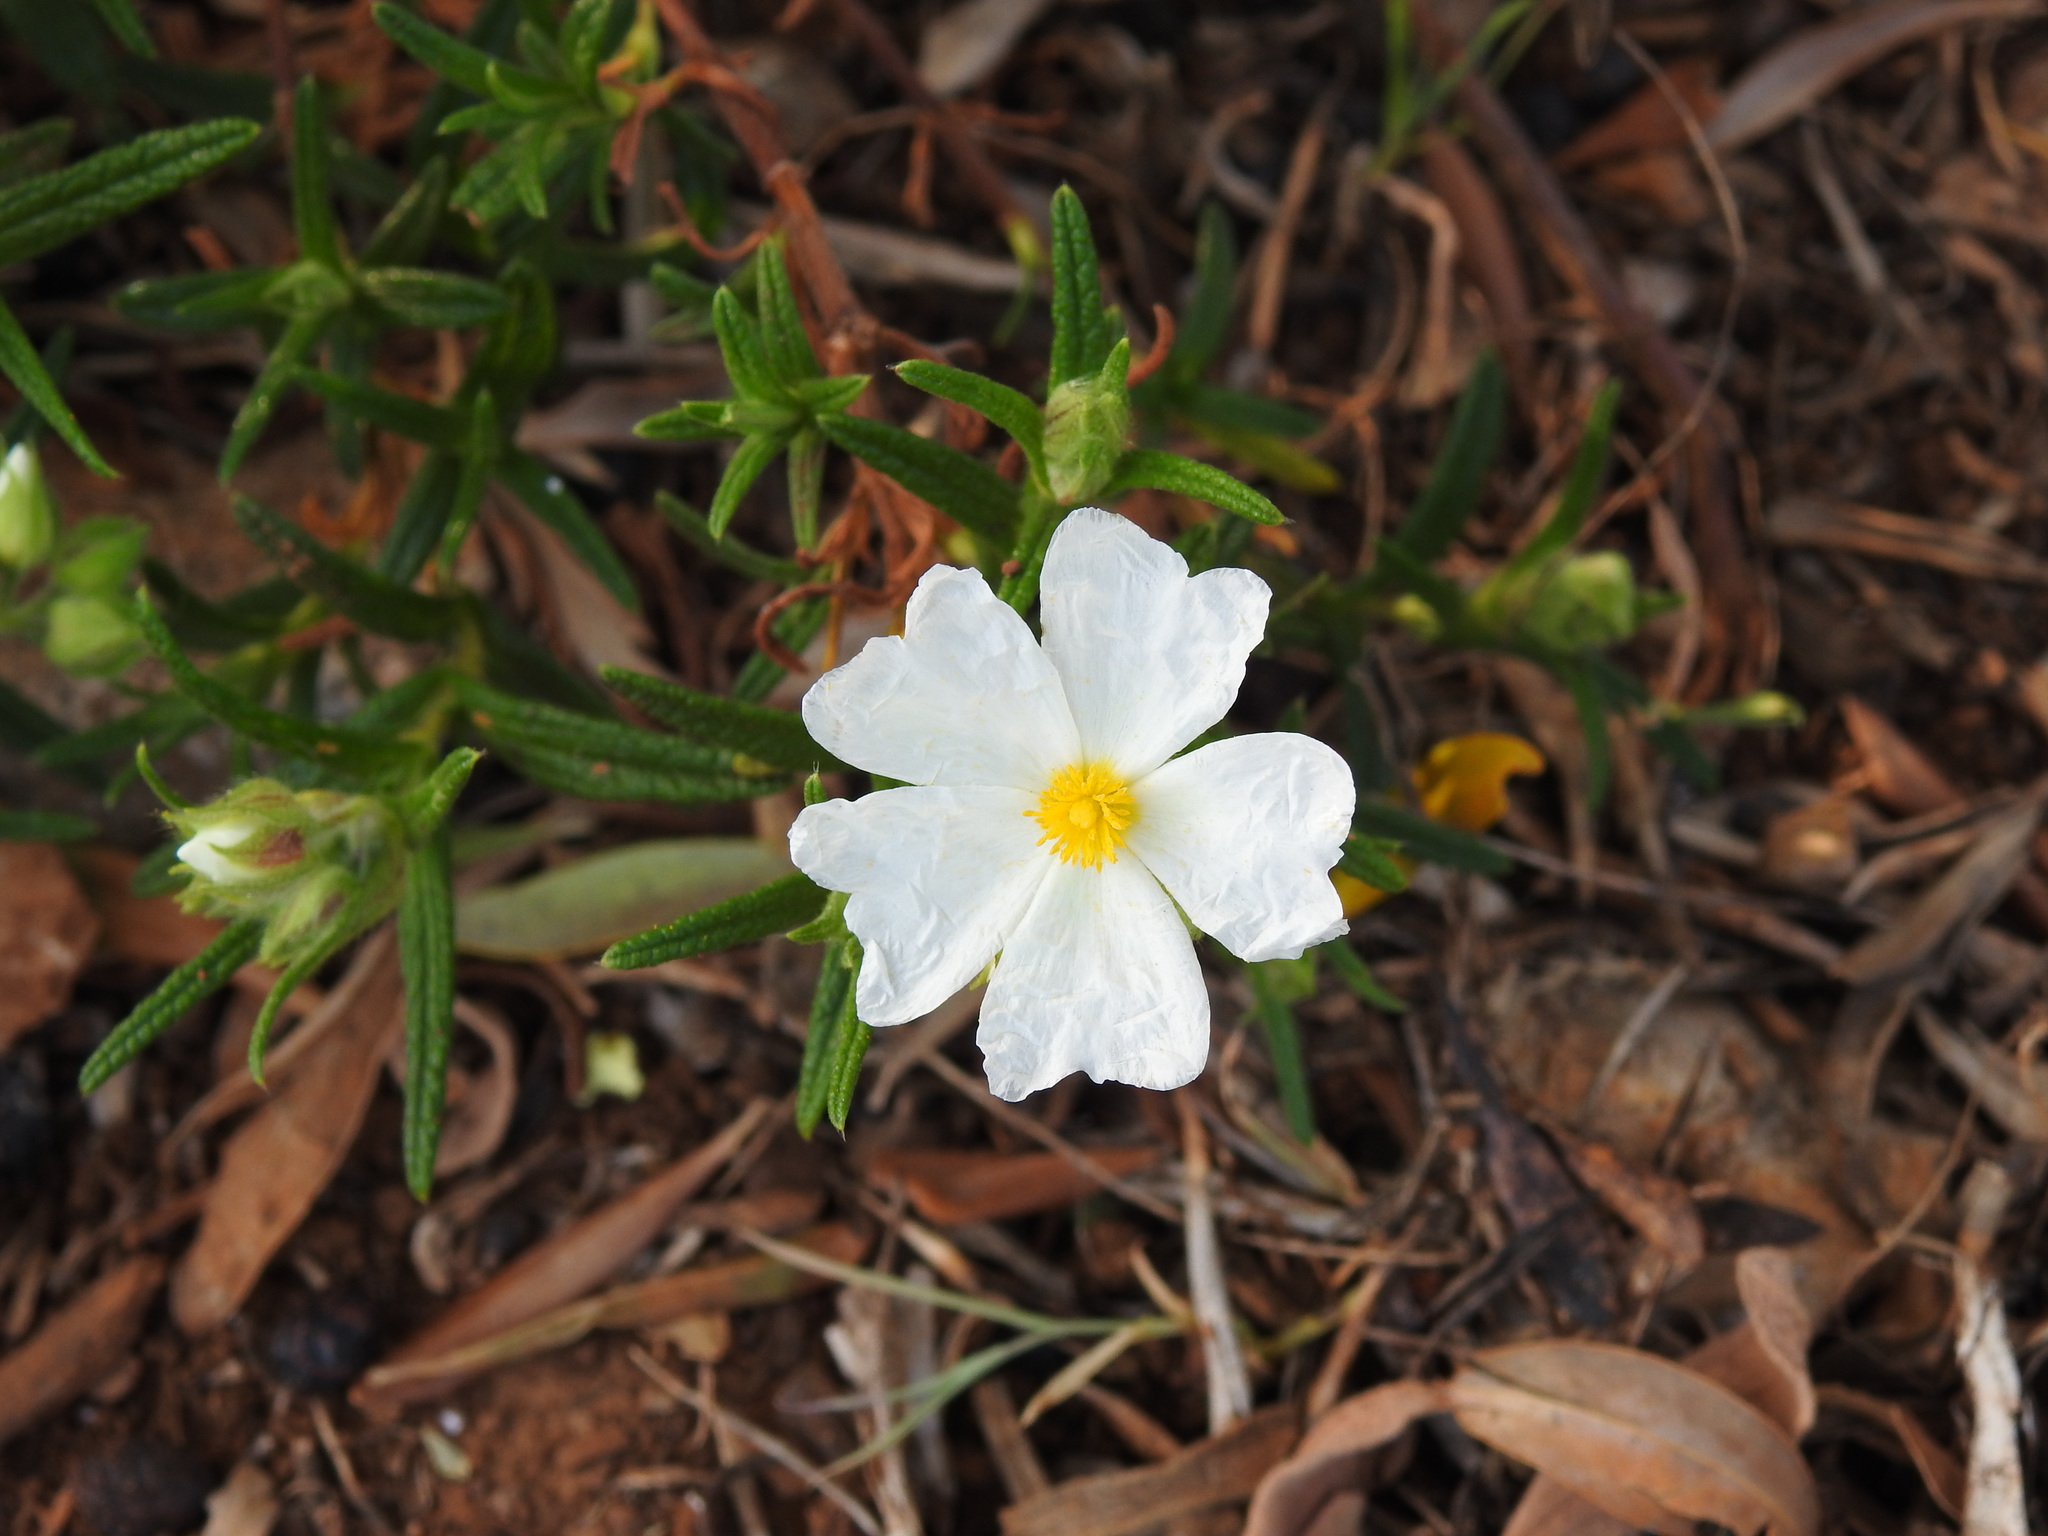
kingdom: Plantae
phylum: Tracheophyta
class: Magnoliopsida
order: Malvales
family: Cistaceae
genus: Cistus
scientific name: Cistus monspeliensis
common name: Montpelier cistus
